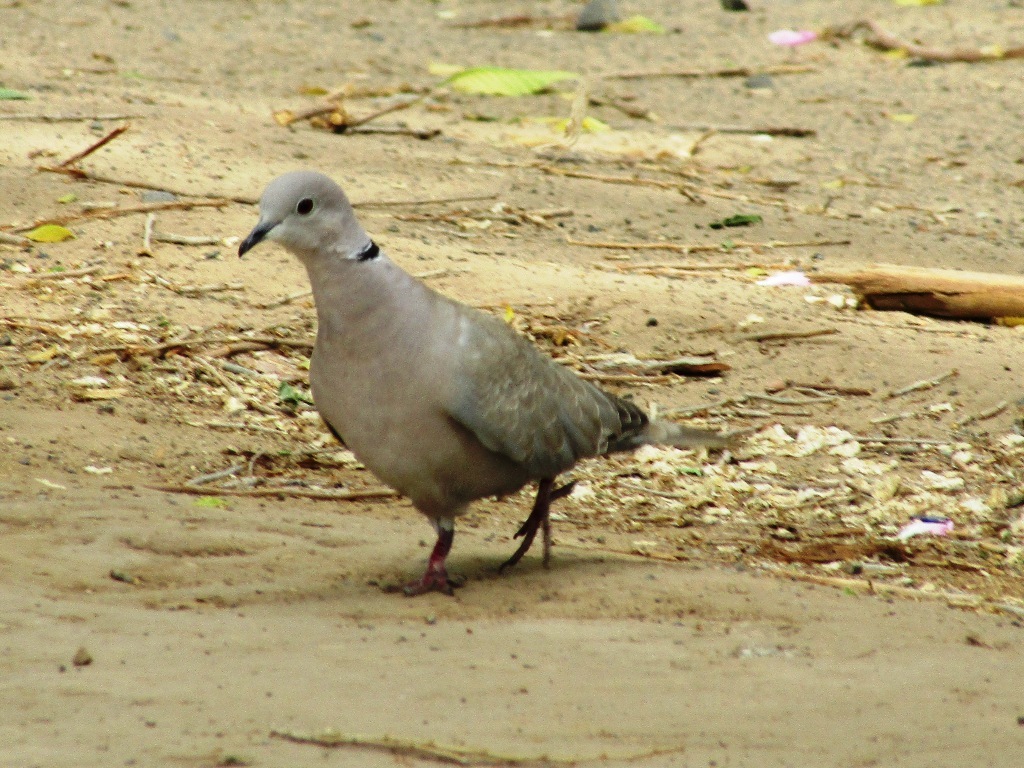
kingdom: Animalia
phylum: Chordata
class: Aves
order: Columbiformes
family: Columbidae
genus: Streptopelia
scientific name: Streptopelia decaocto
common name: Eurasian collared dove
